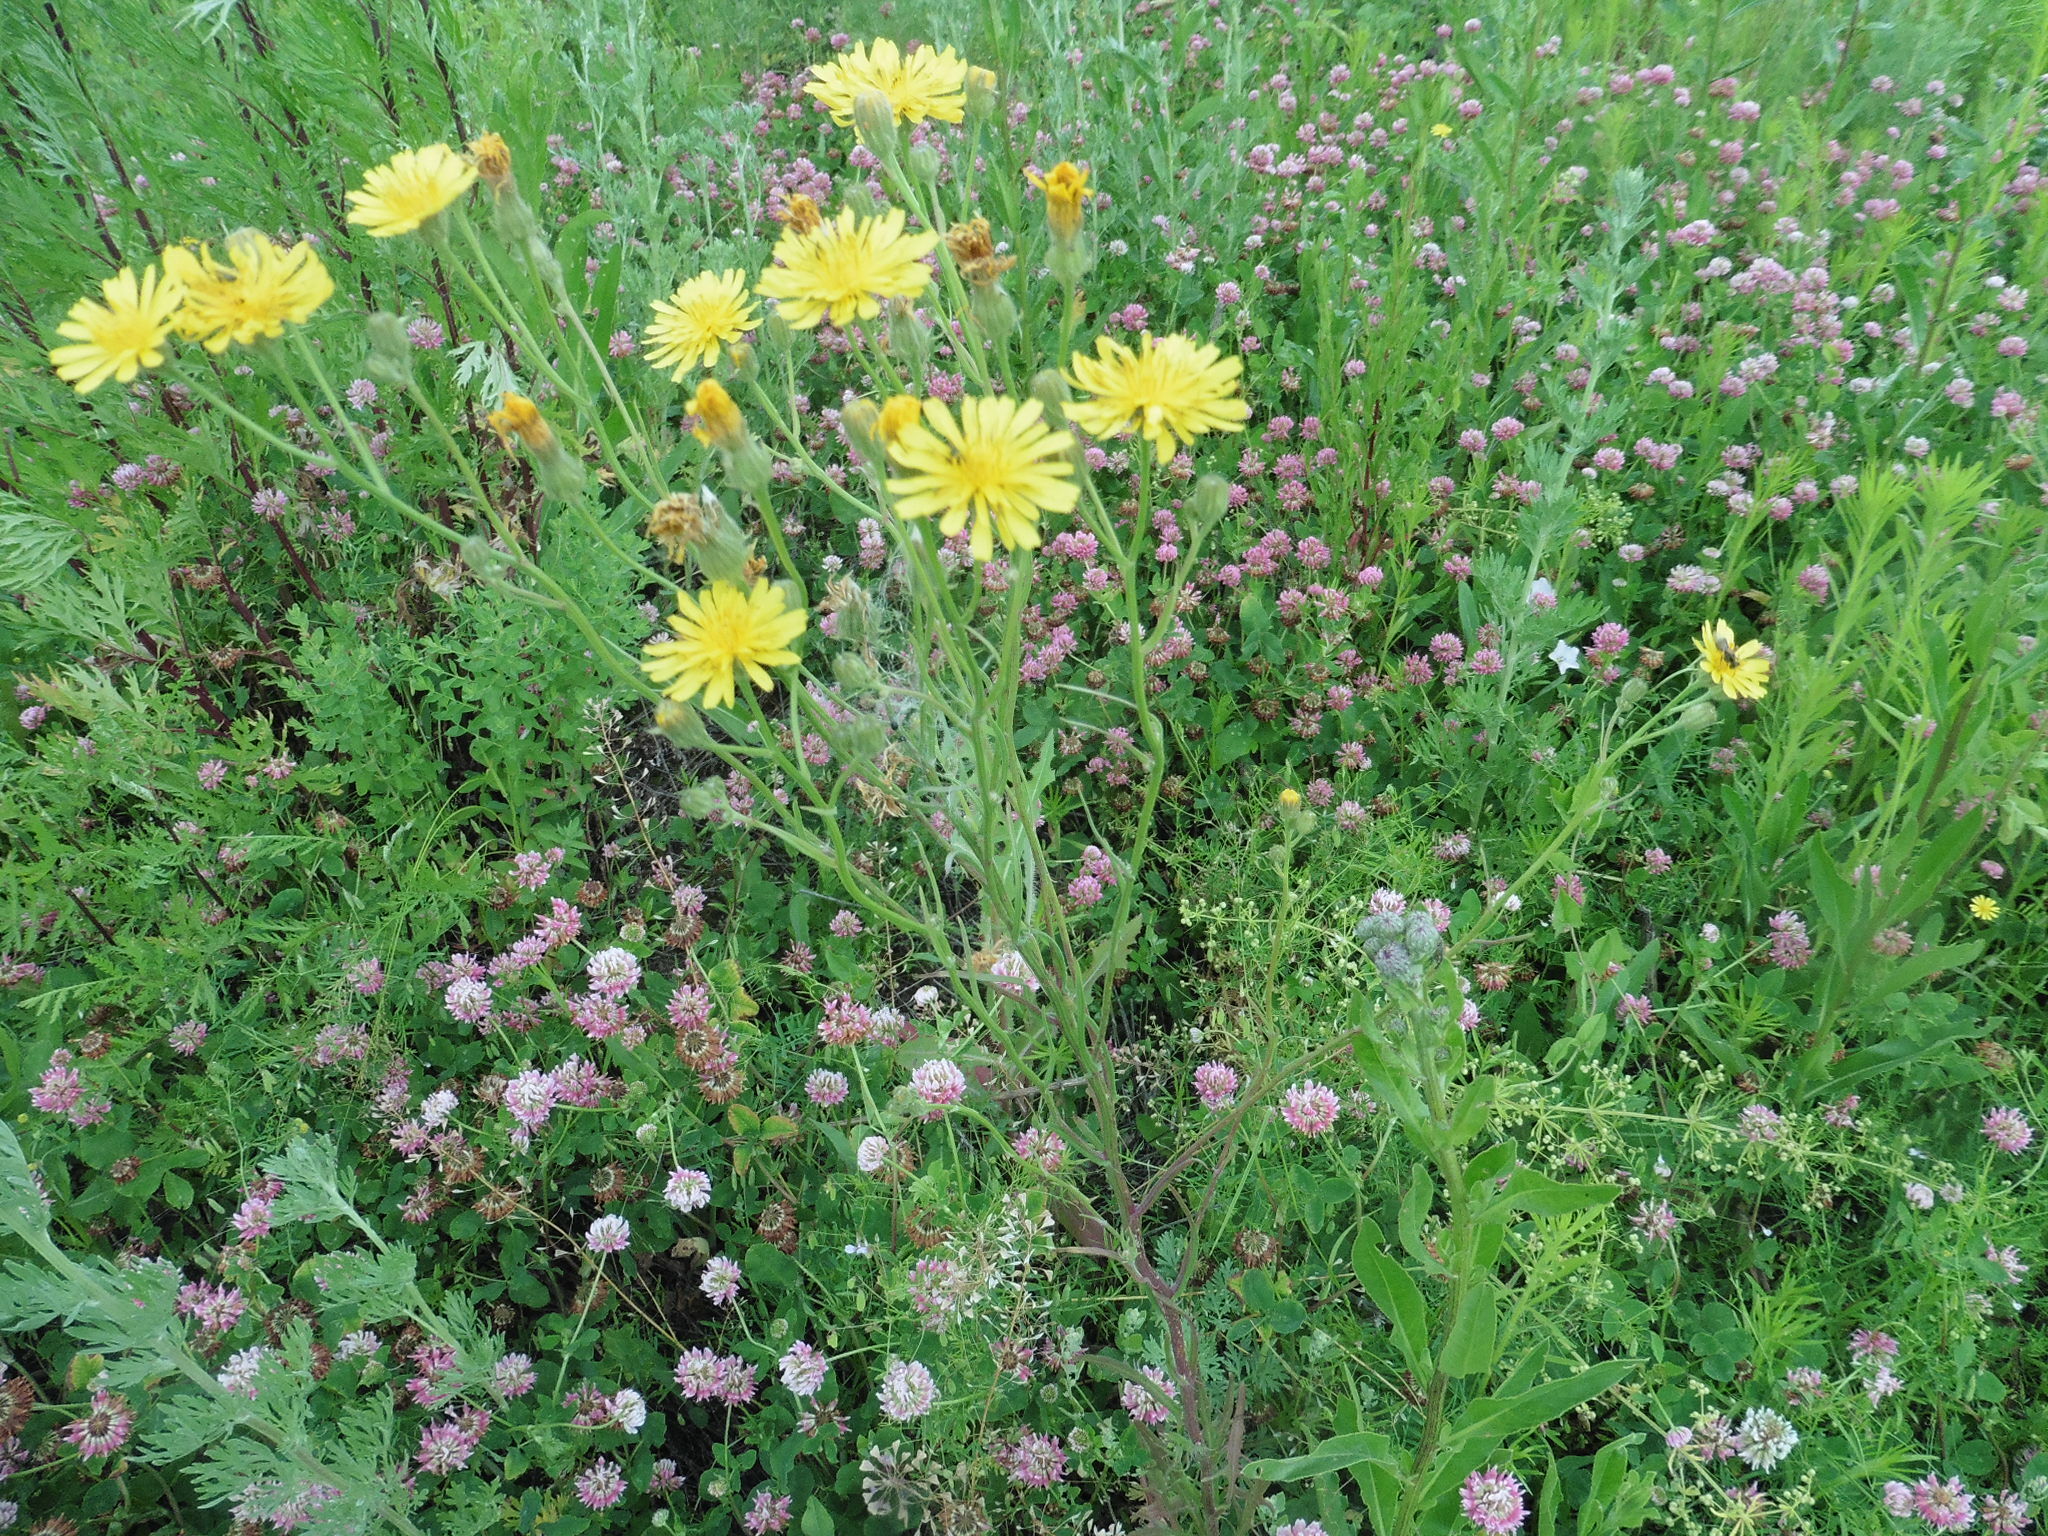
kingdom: Plantae
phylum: Tracheophyta
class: Magnoliopsida
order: Asterales
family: Asteraceae
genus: Crepis
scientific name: Crepis tectorum
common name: Narrow-leaved hawk's-beard
